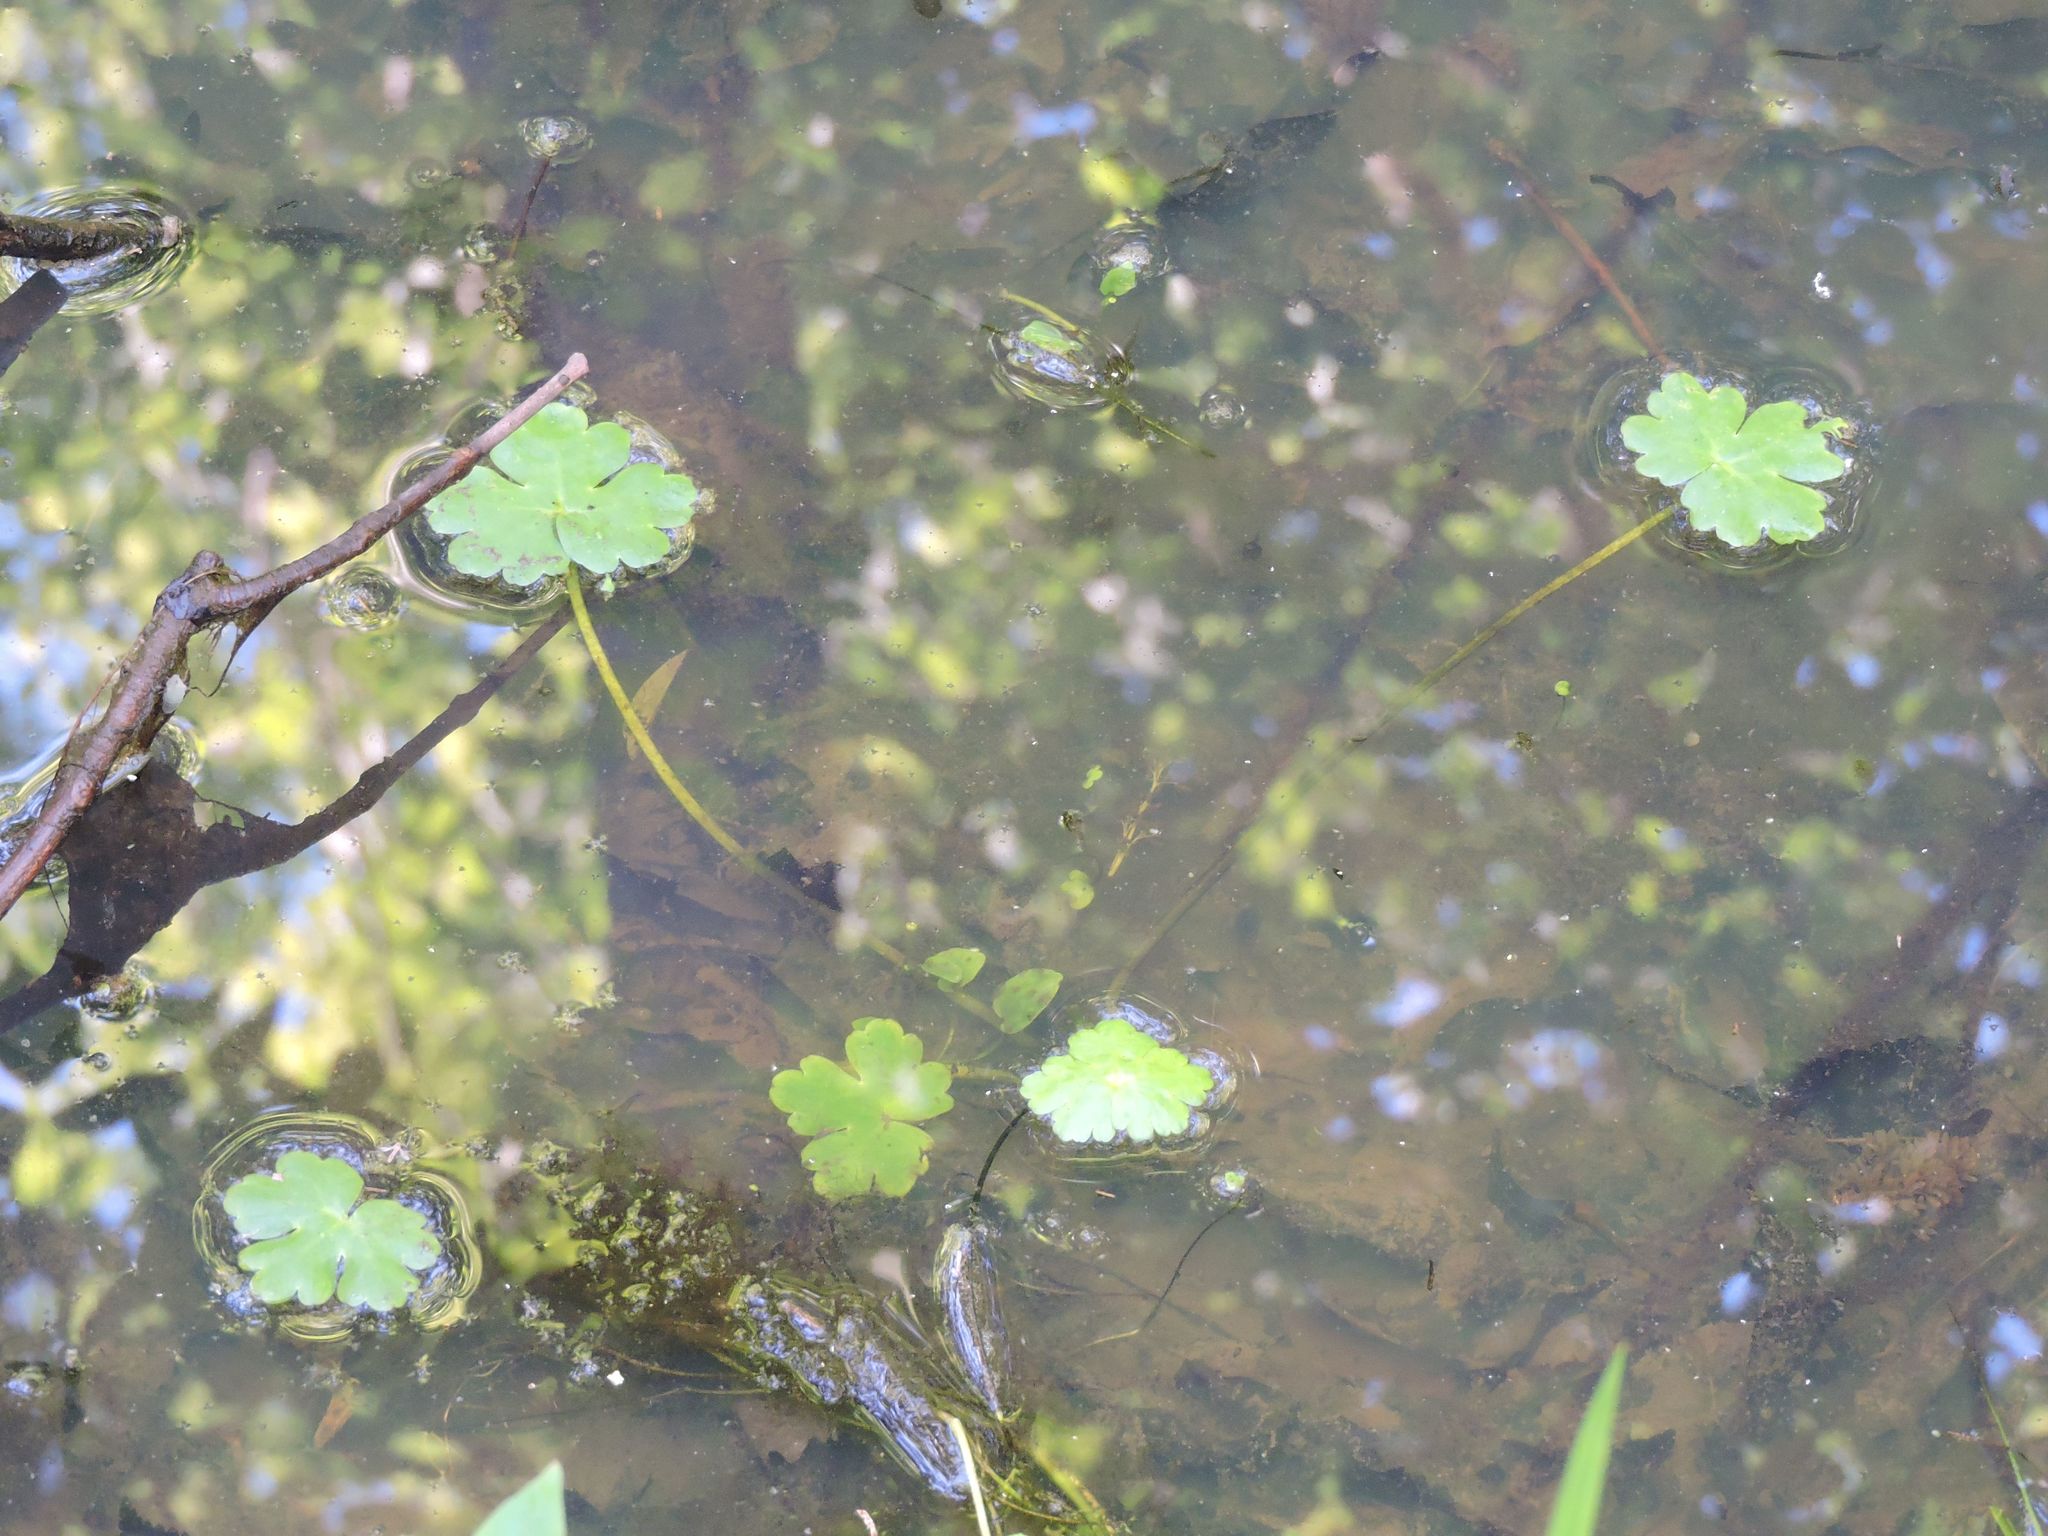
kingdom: Plantae
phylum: Tracheophyta
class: Magnoliopsida
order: Apiales
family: Araliaceae
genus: Hydrocotyle
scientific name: Hydrocotyle ranunculoides
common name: Floating pennywort
